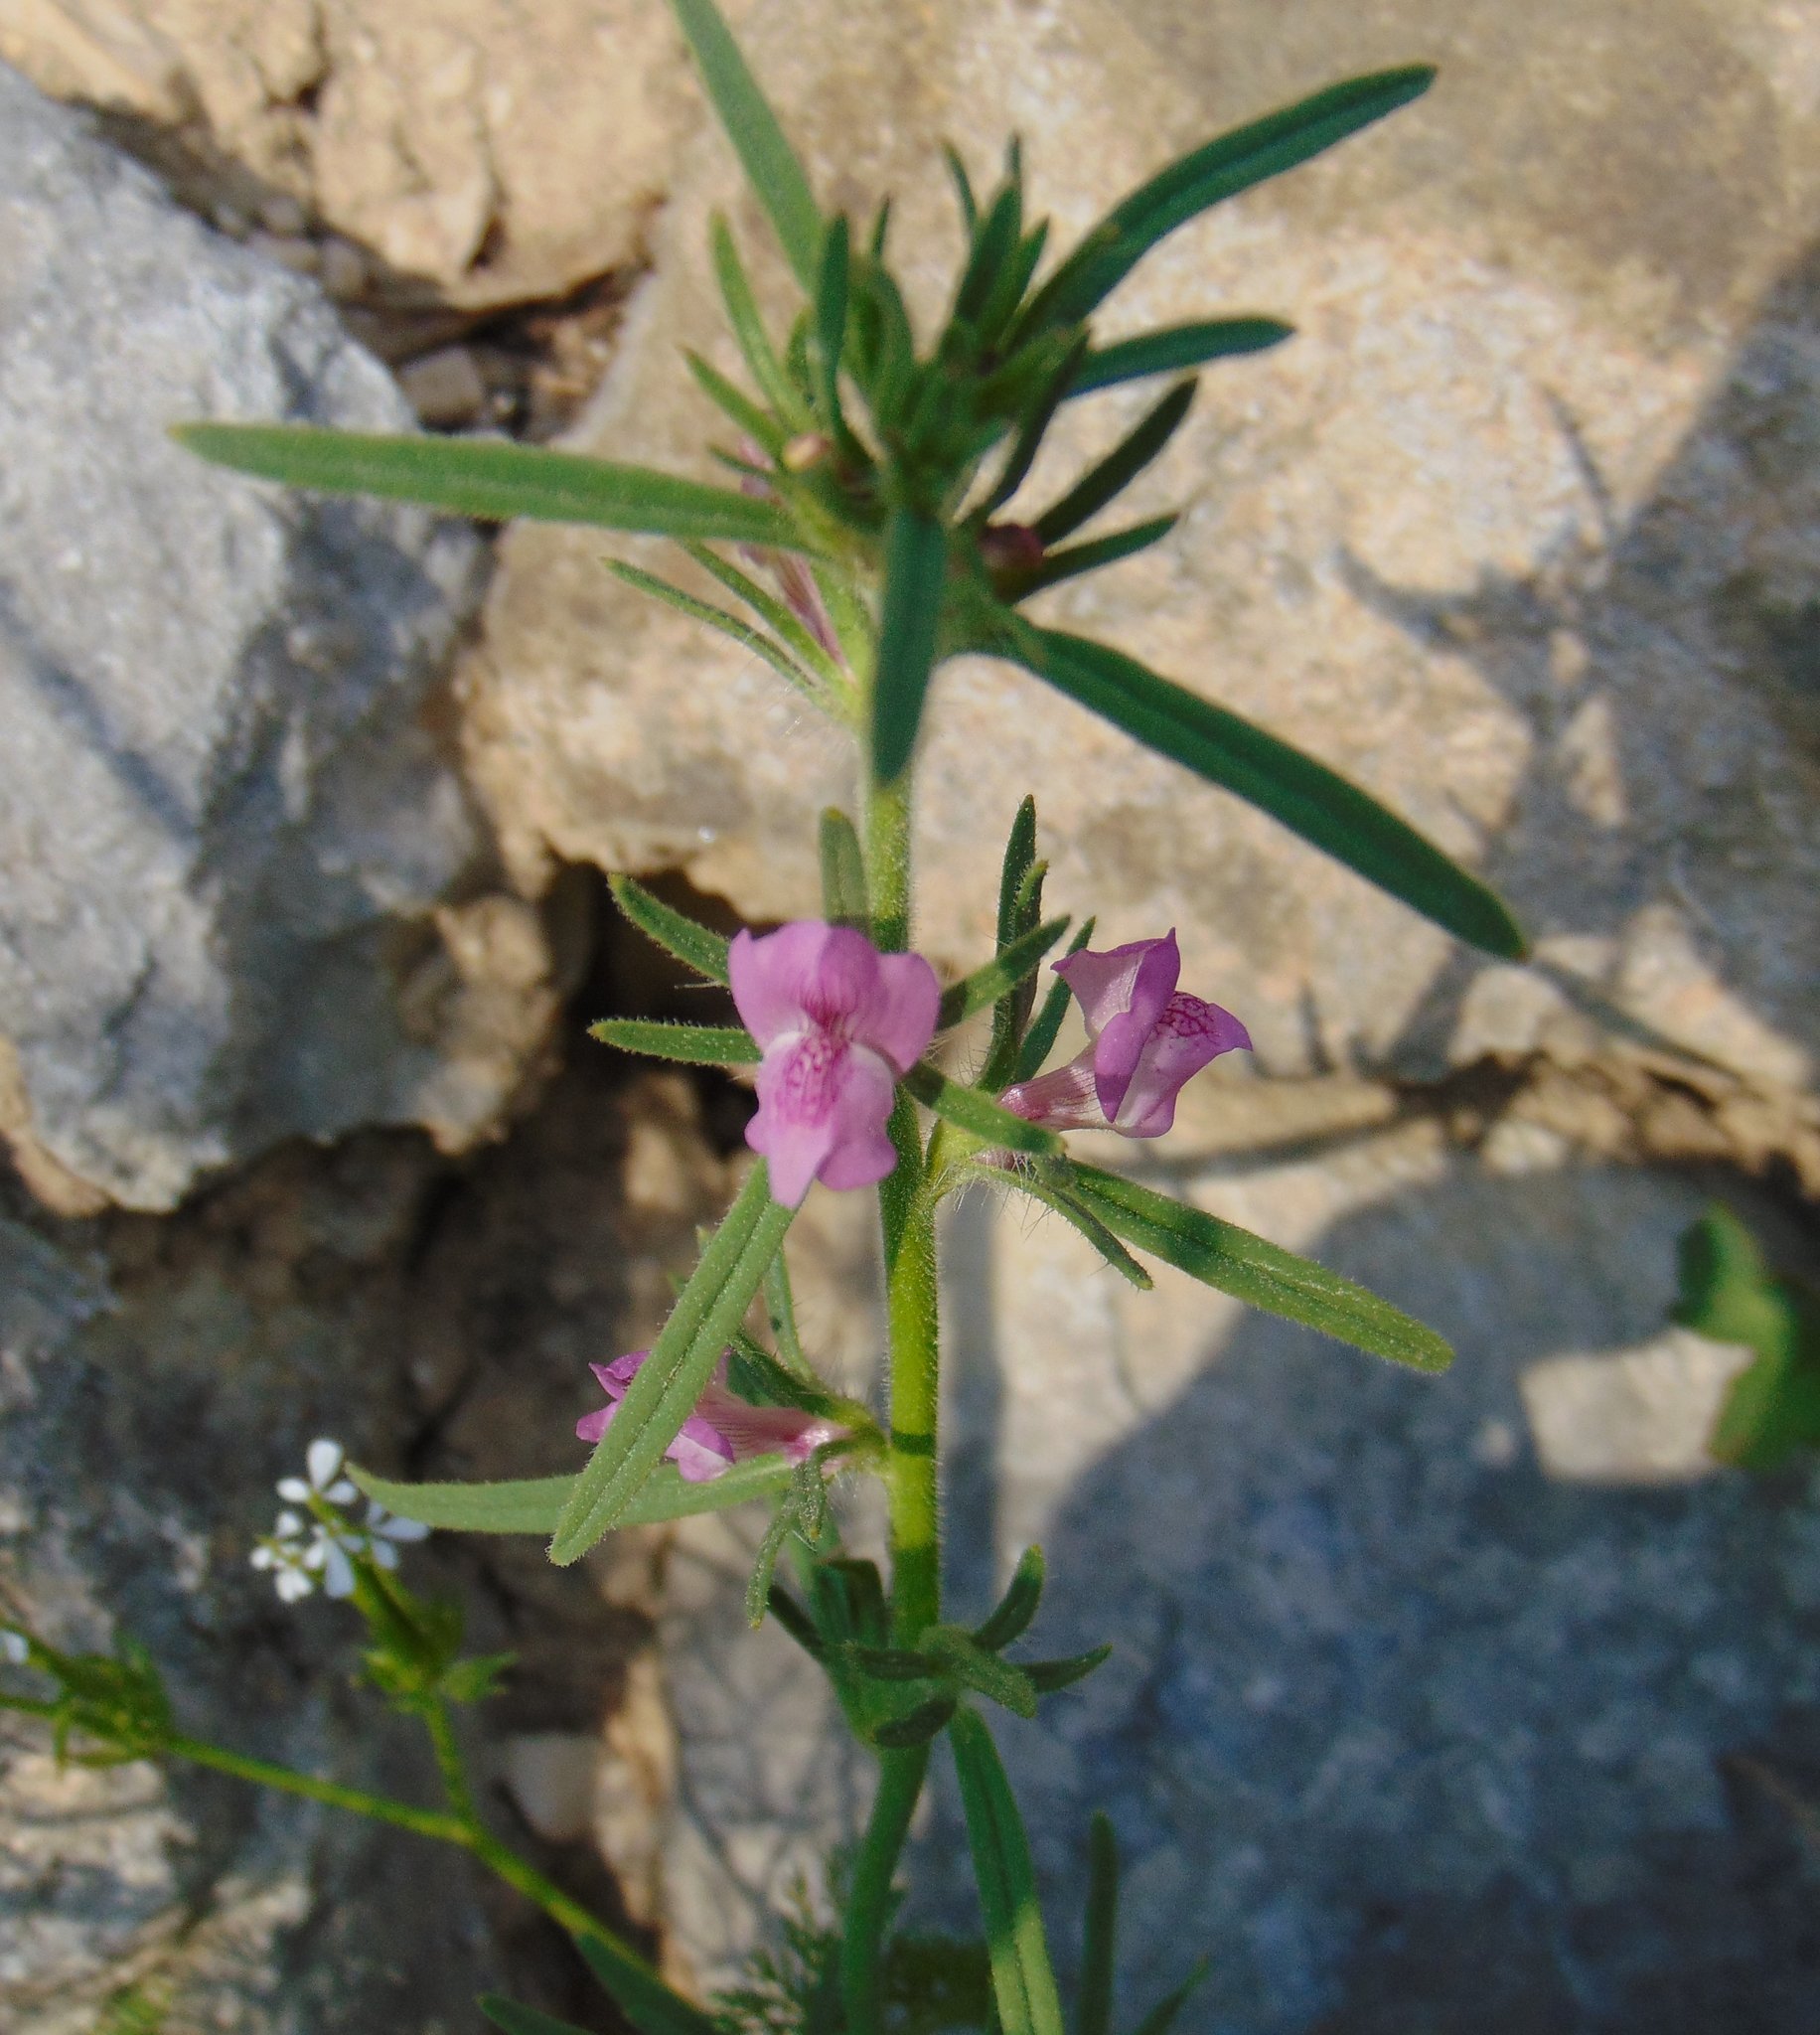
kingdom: Plantae
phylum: Tracheophyta
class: Magnoliopsida
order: Lamiales
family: Plantaginaceae
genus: Misopates
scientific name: Misopates orontium
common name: Weasel's-snout
